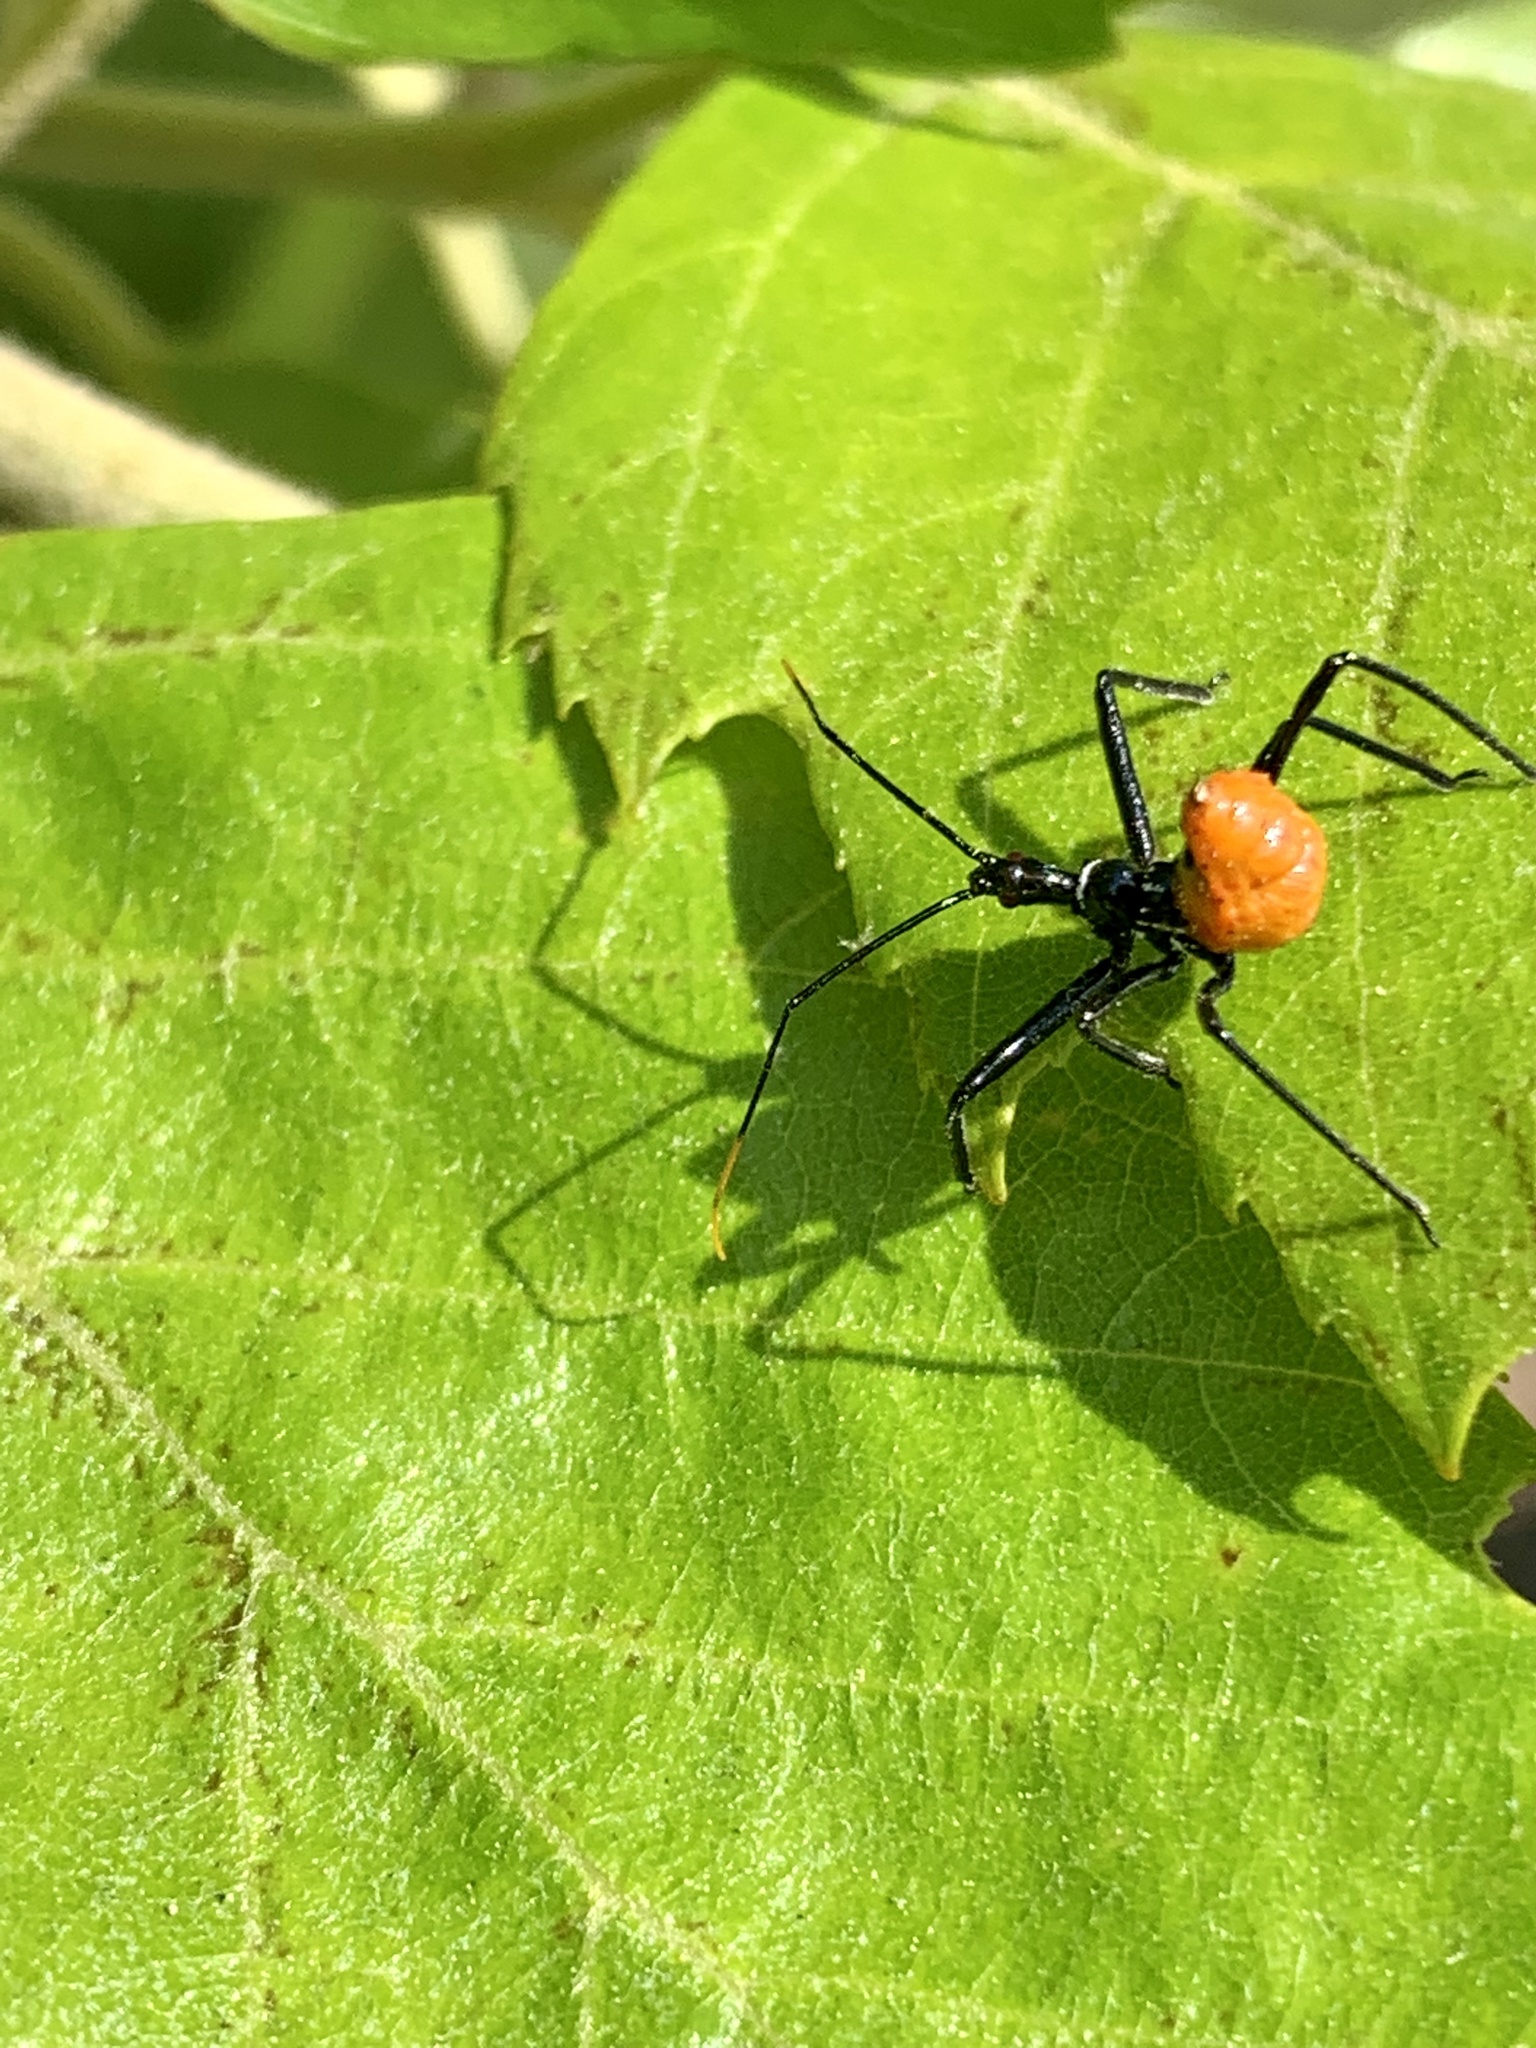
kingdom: Animalia
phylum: Arthropoda
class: Insecta
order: Hemiptera
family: Reduviidae
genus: Arilus
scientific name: Arilus cristatus
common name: North american wheel bug
